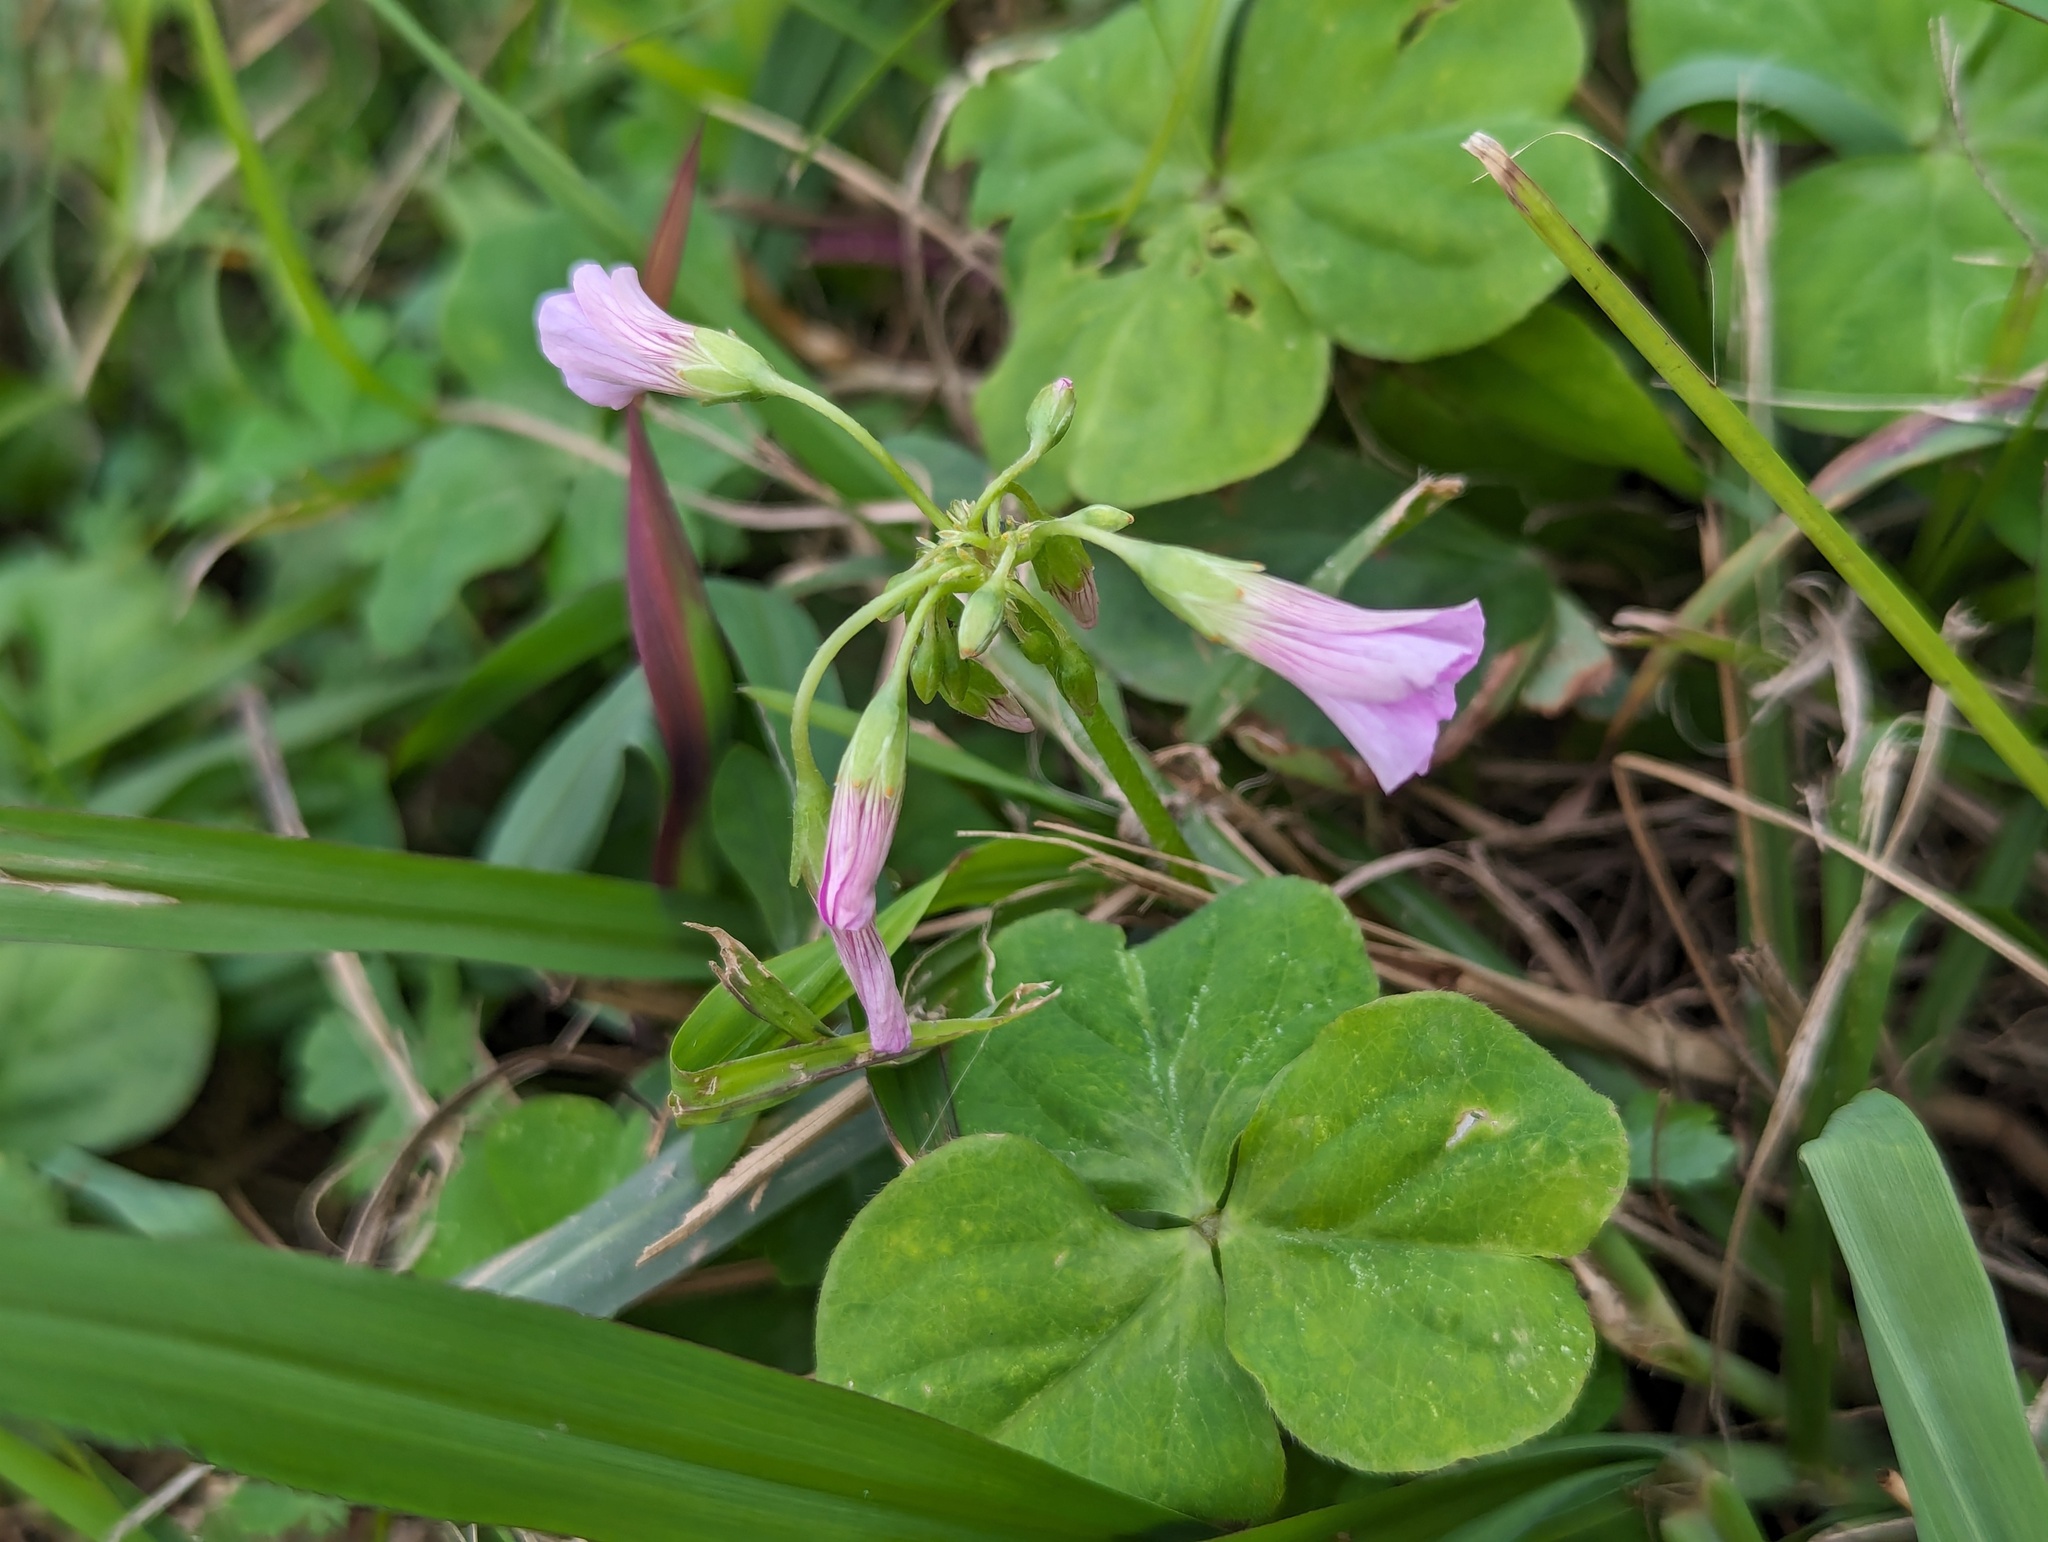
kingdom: Plantae
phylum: Tracheophyta
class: Magnoliopsida
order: Oxalidales
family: Oxalidaceae
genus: Oxalis
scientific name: Oxalis debilis
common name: Large-flowered pink-sorrel
